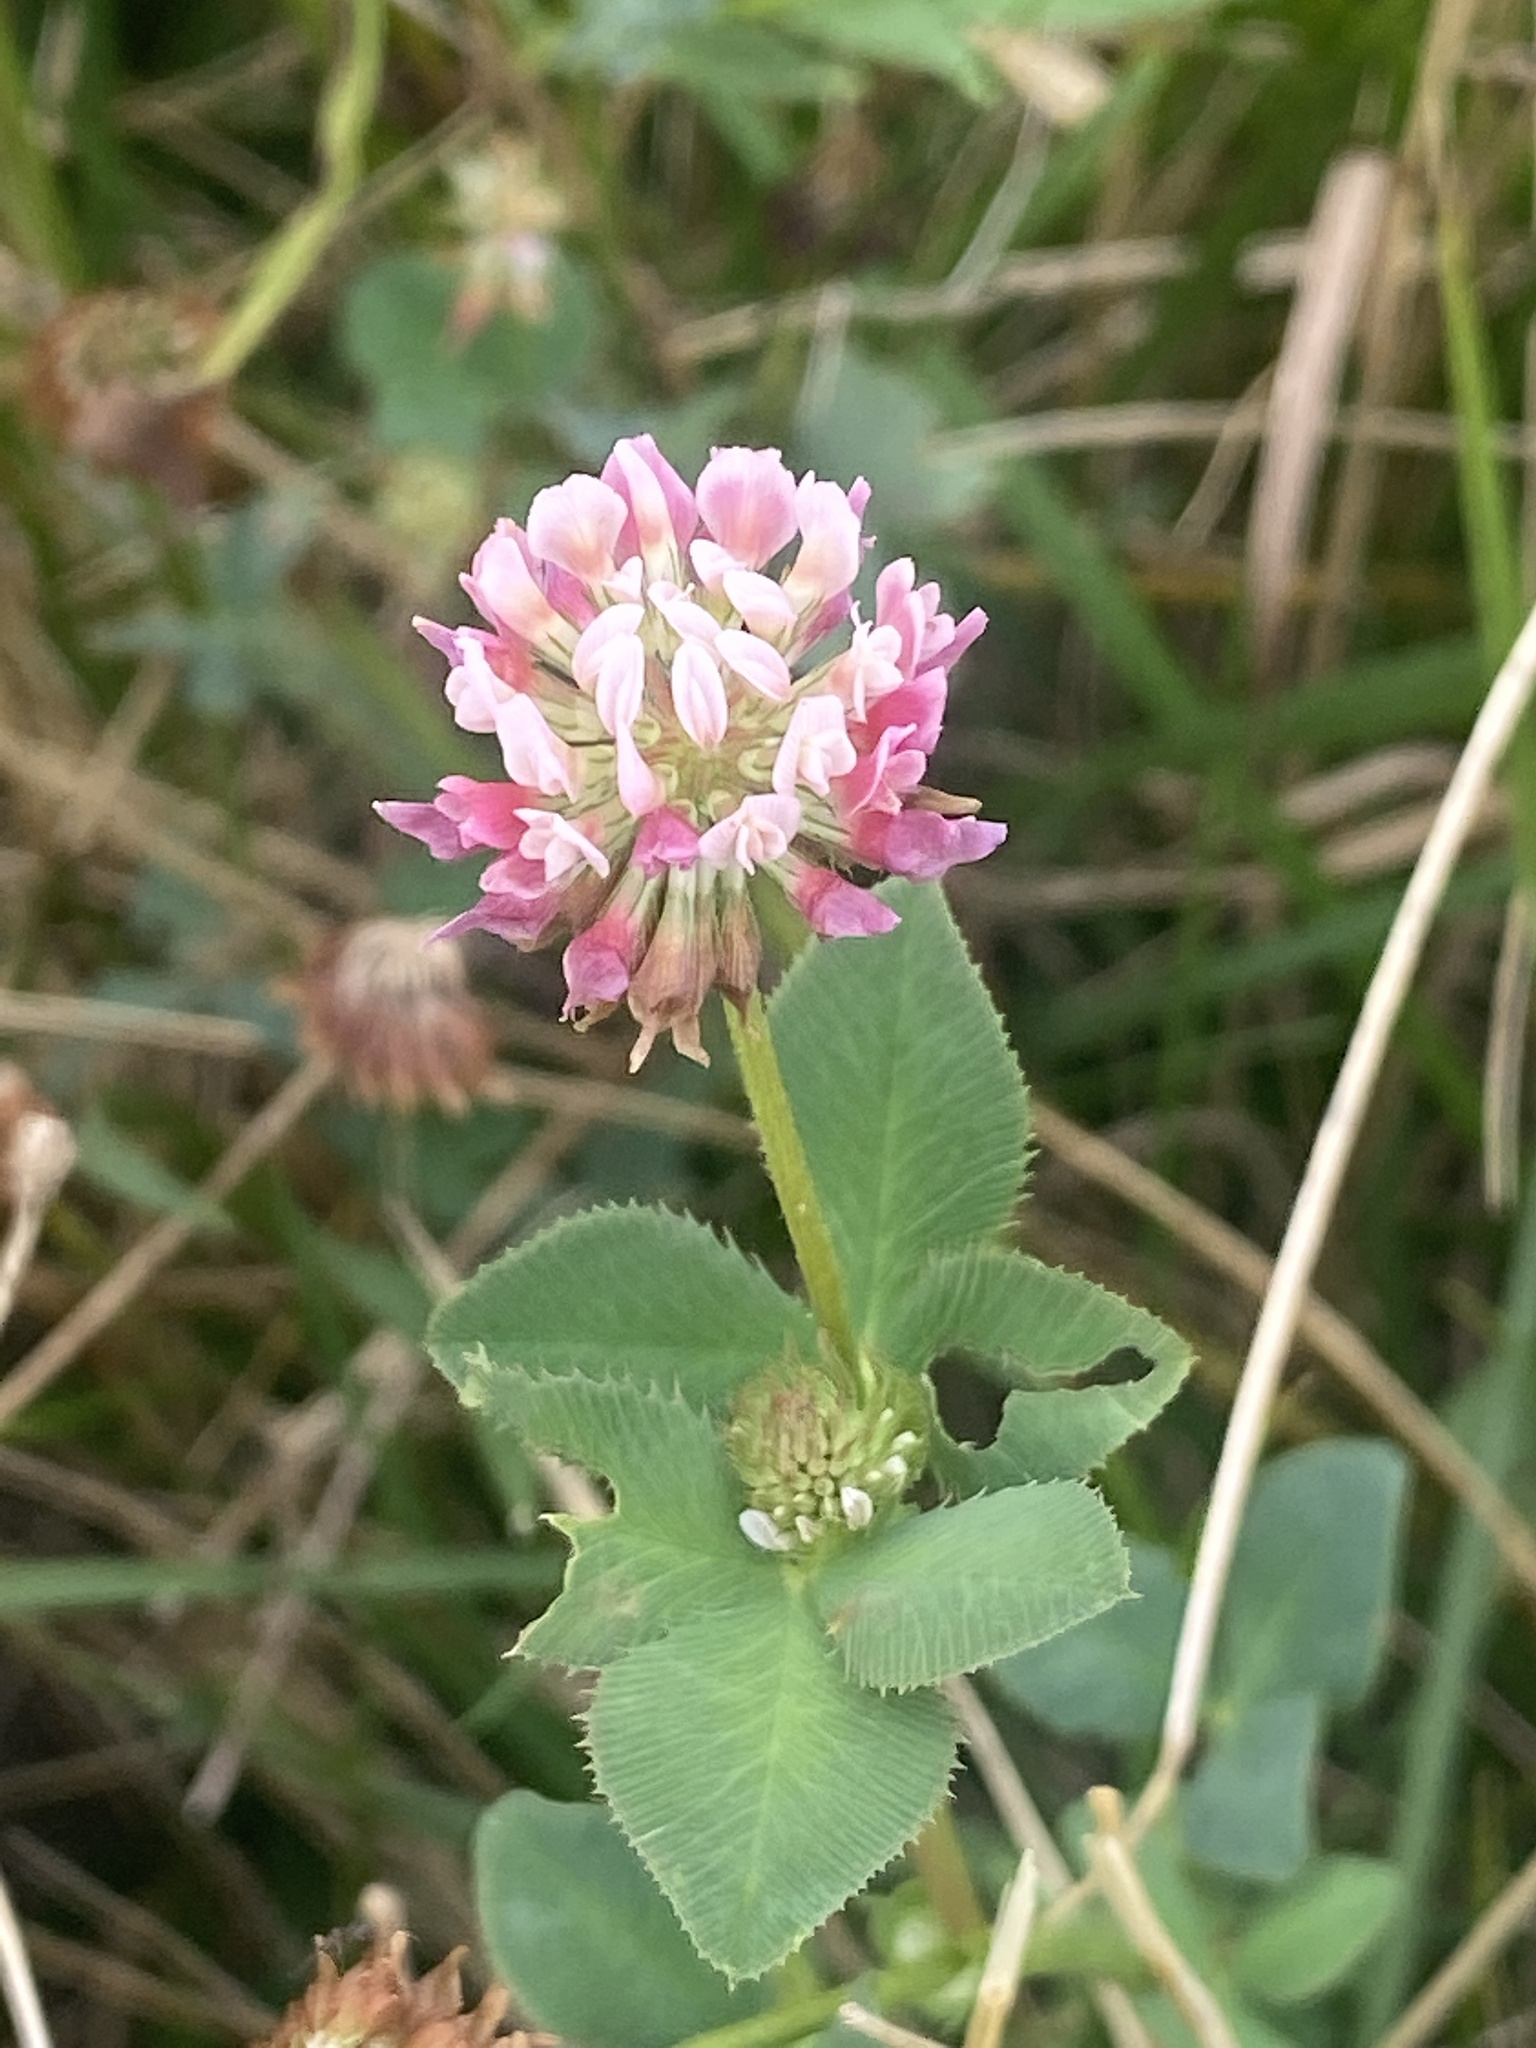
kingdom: Plantae
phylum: Tracheophyta
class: Magnoliopsida
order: Fabales
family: Fabaceae
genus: Trifolium
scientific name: Trifolium hybridum
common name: Alsike clover
